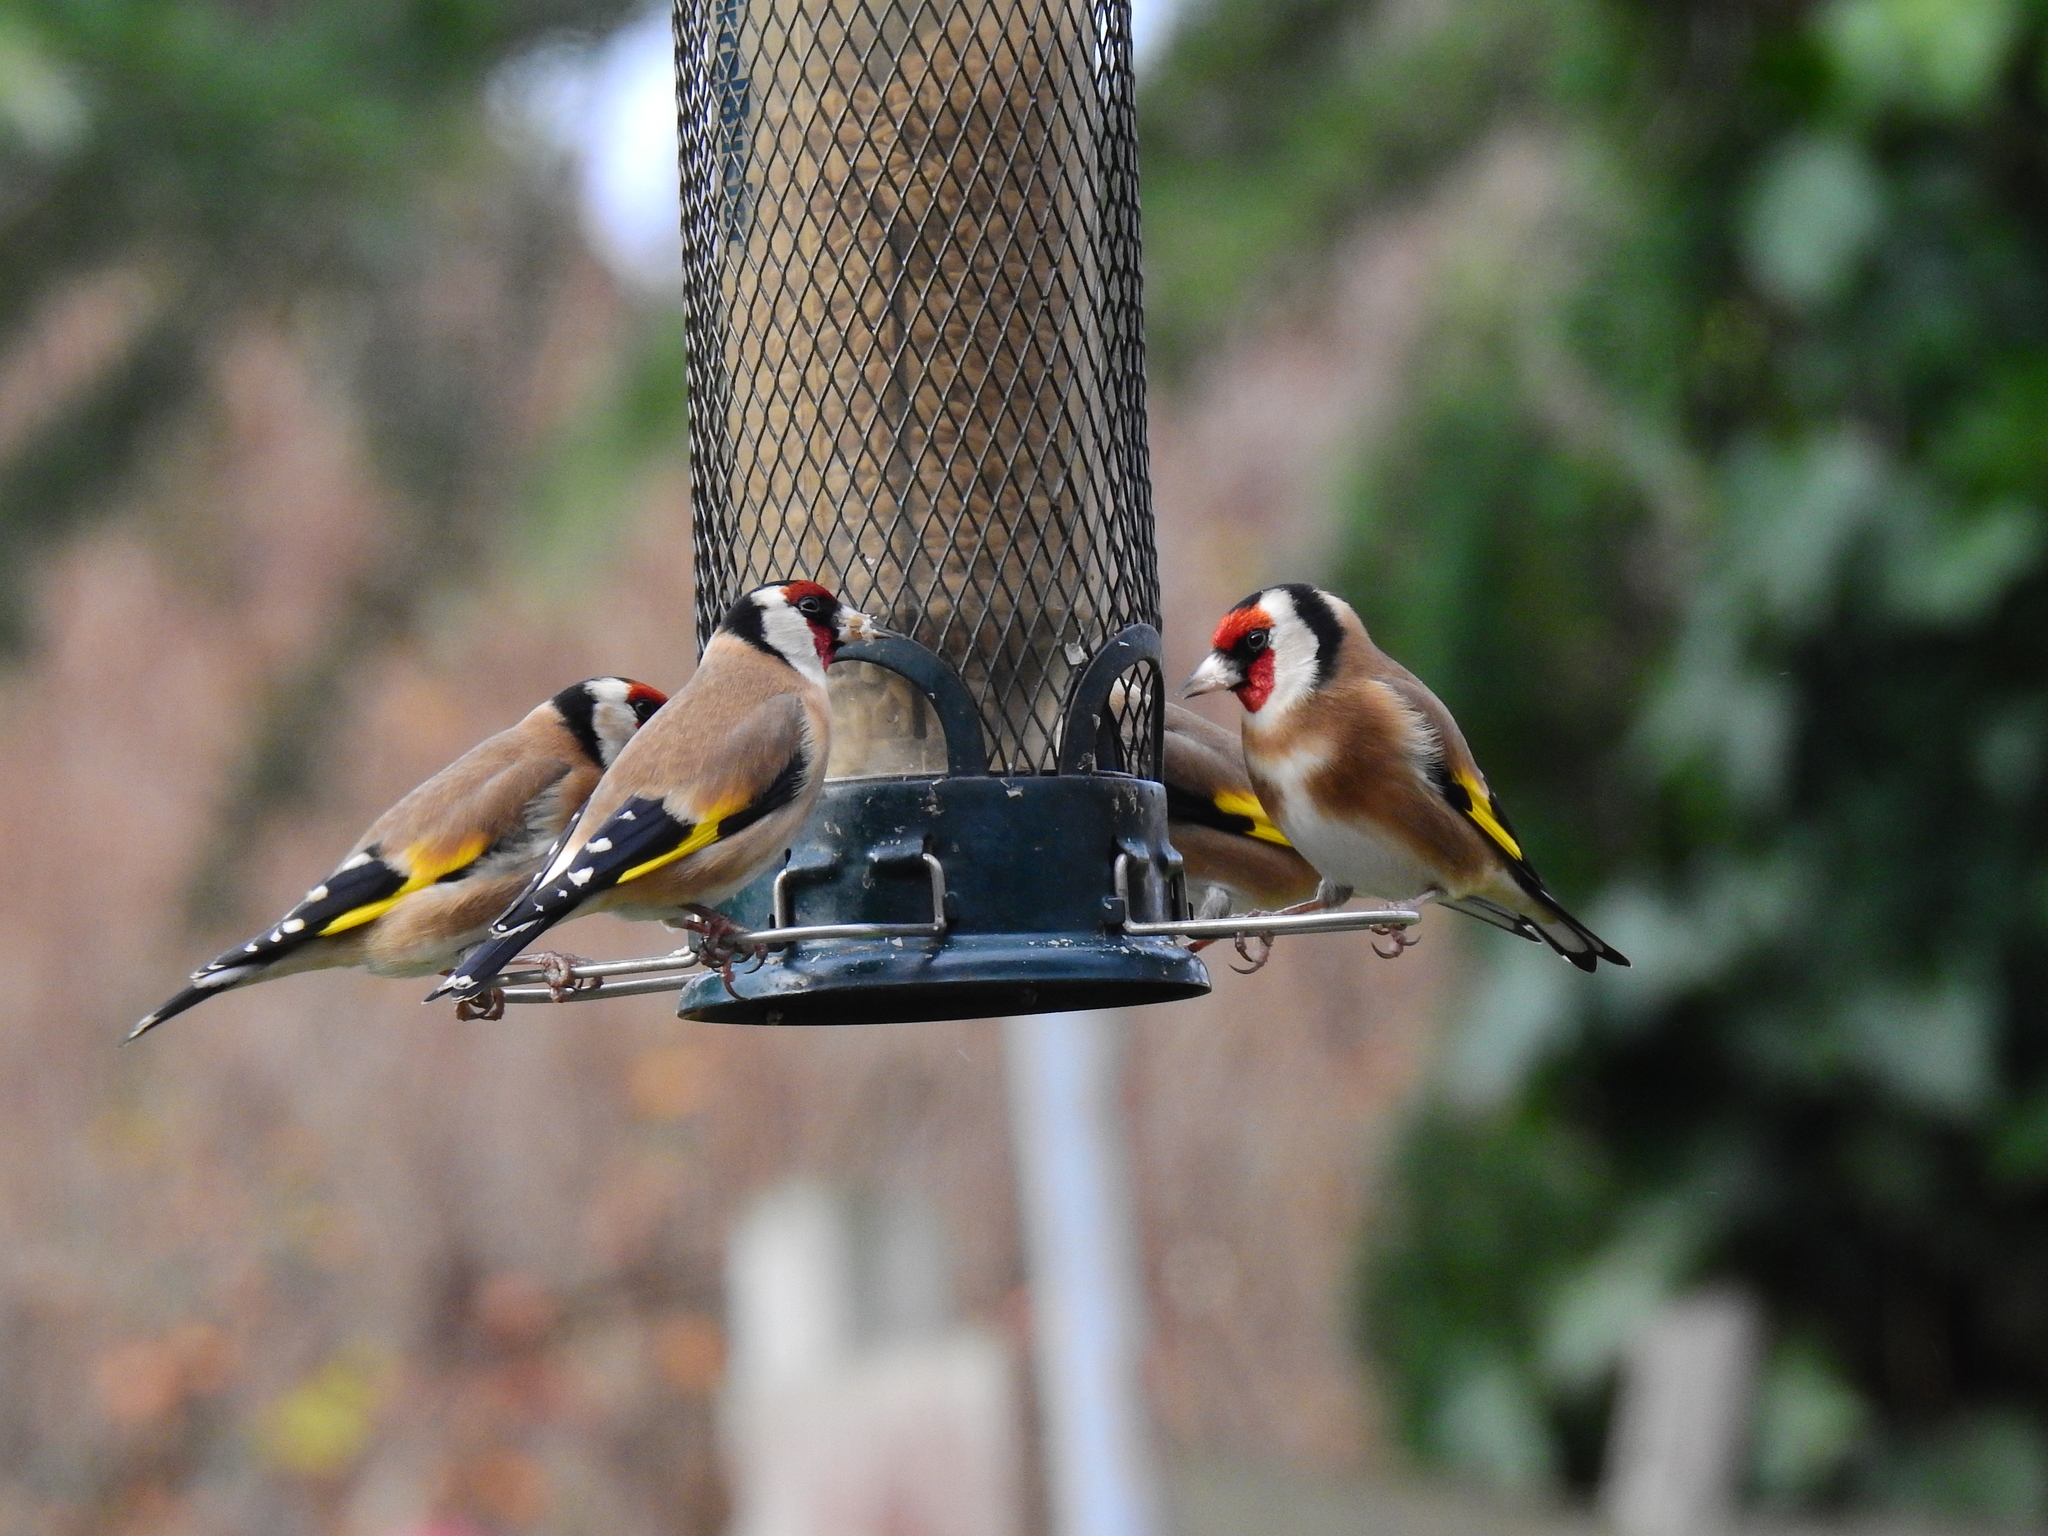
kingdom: Animalia
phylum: Chordata
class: Aves
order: Passeriformes
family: Fringillidae
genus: Carduelis
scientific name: Carduelis carduelis
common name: European goldfinch
